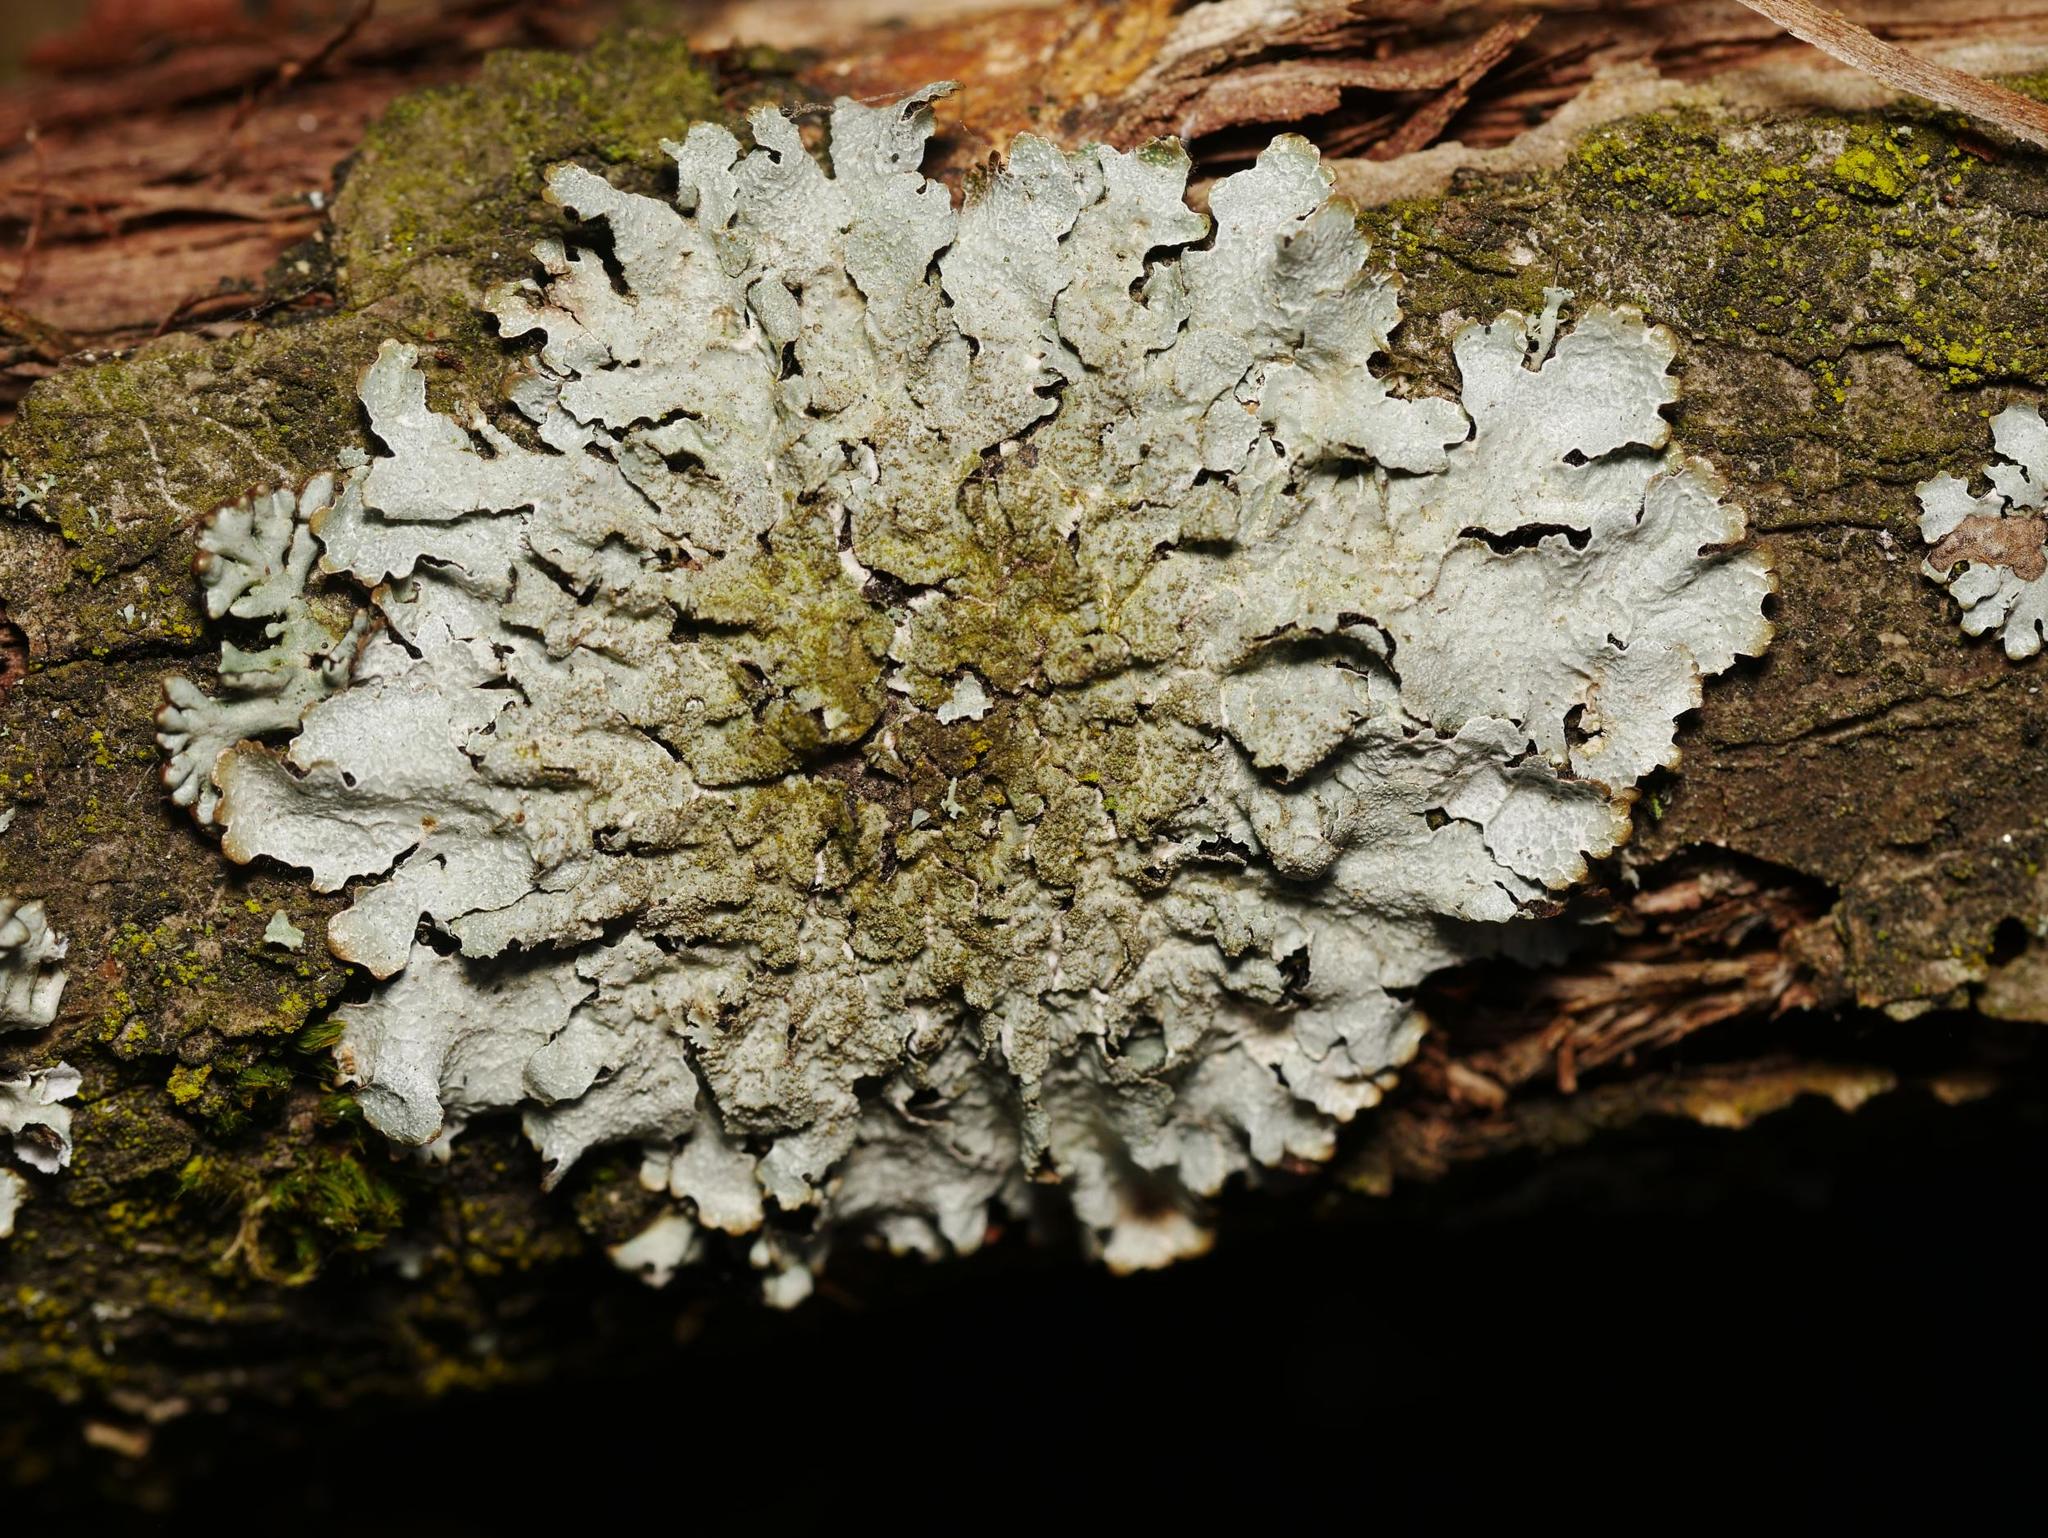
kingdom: Fungi
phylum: Ascomycota
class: Lecanoromycetes
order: Lecanorales
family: Parmeliaceae
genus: Parmelia
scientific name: Parmelia sulcata
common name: Netted shield lichen
